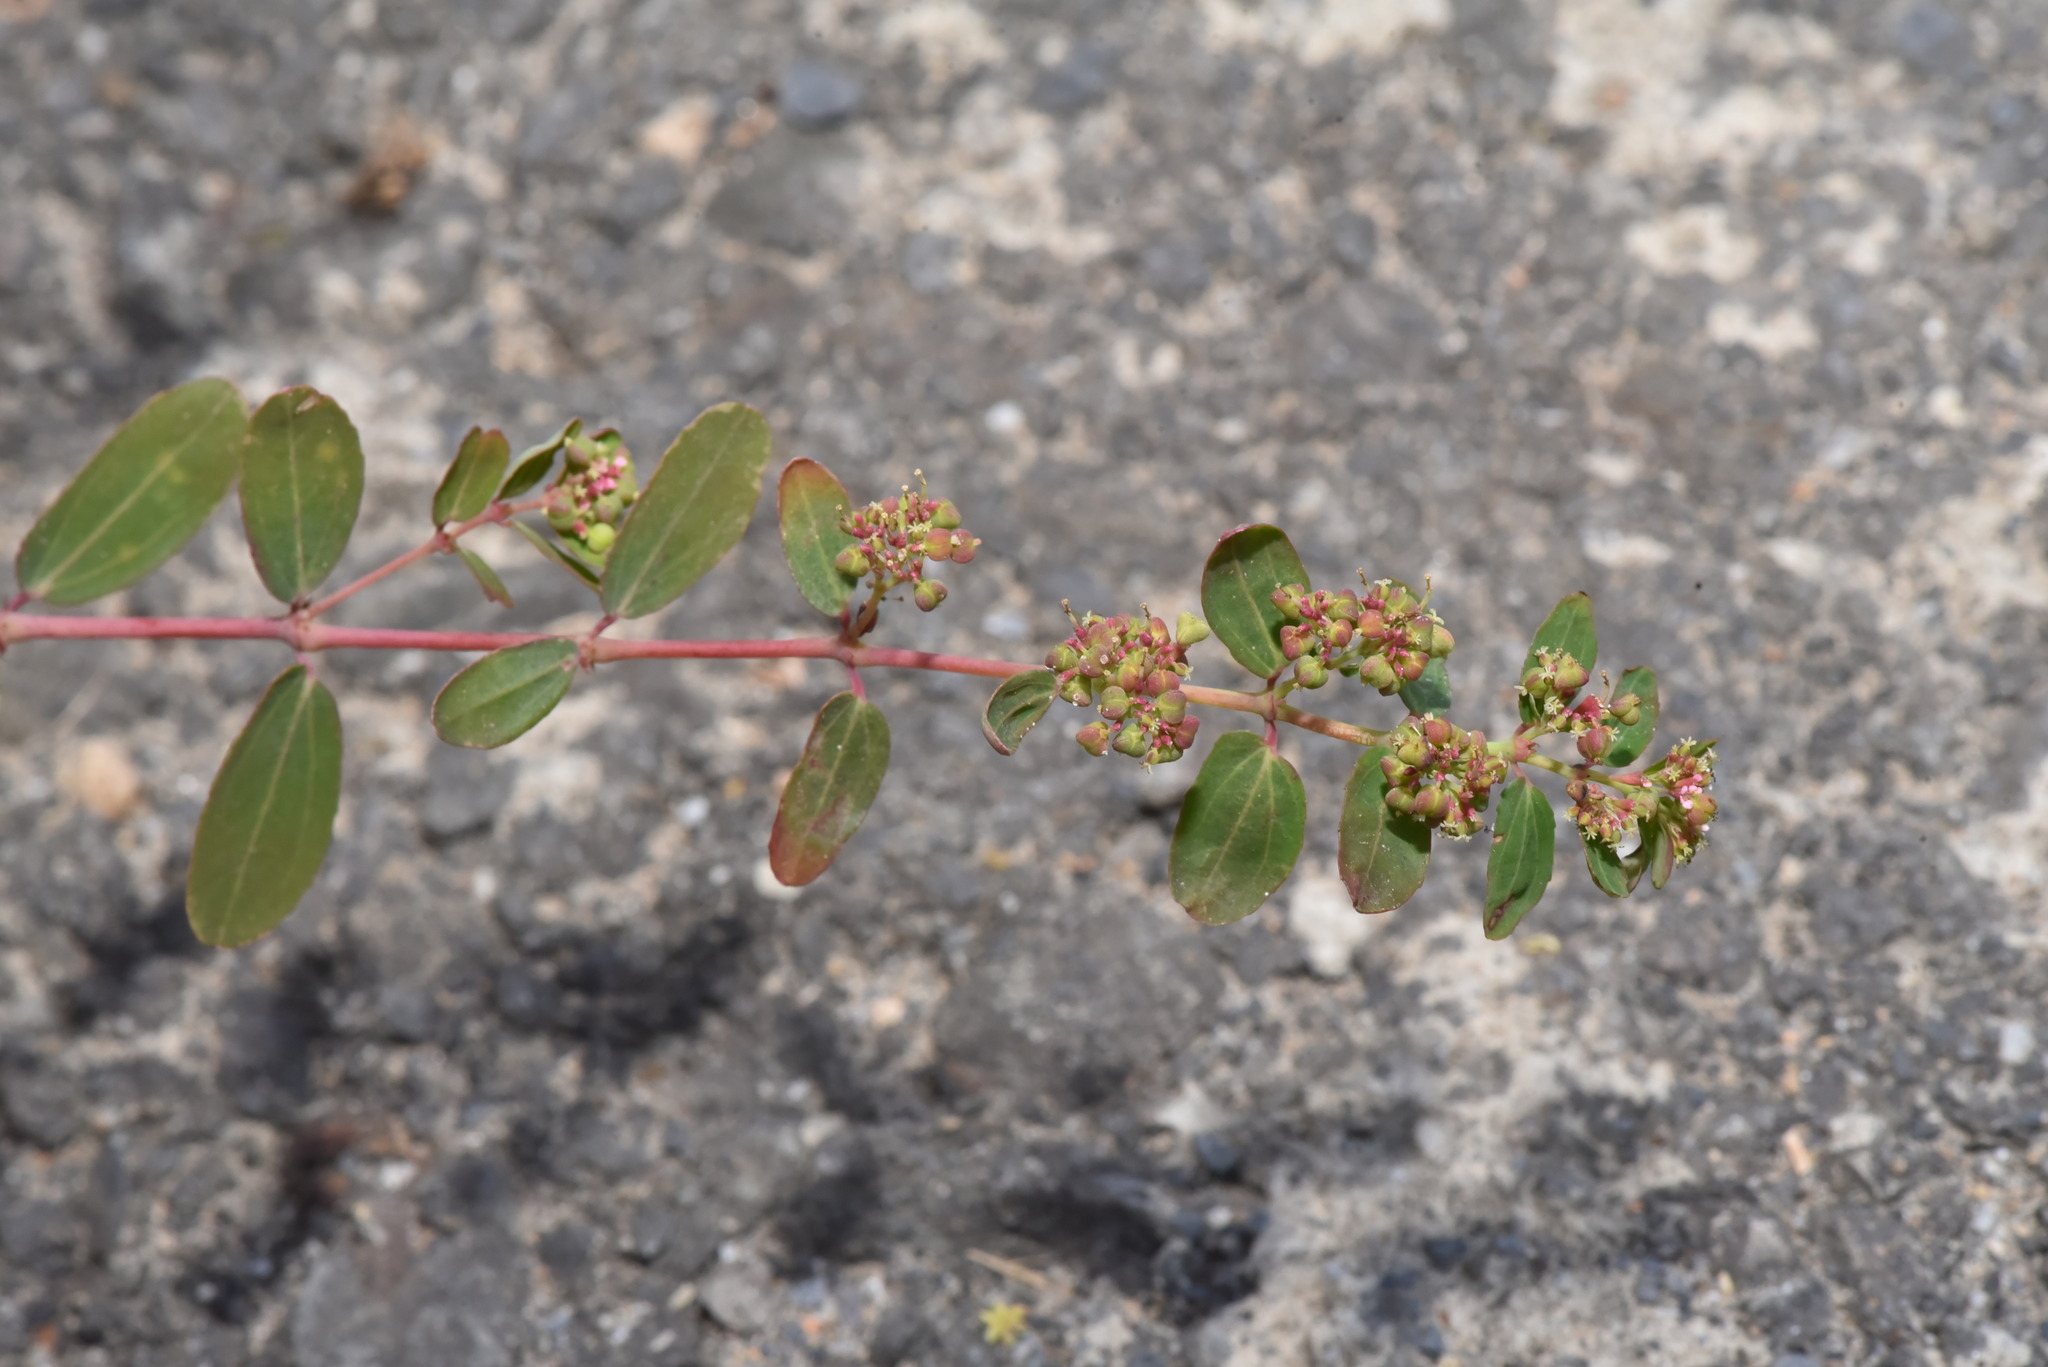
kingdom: Plantae
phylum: Tracheophyta
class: Magnoliopsida
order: Malpighiales
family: Euphorbiaceae
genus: Euphorbia
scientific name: Euphorbia hypericifolia
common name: Graceful sandmat
